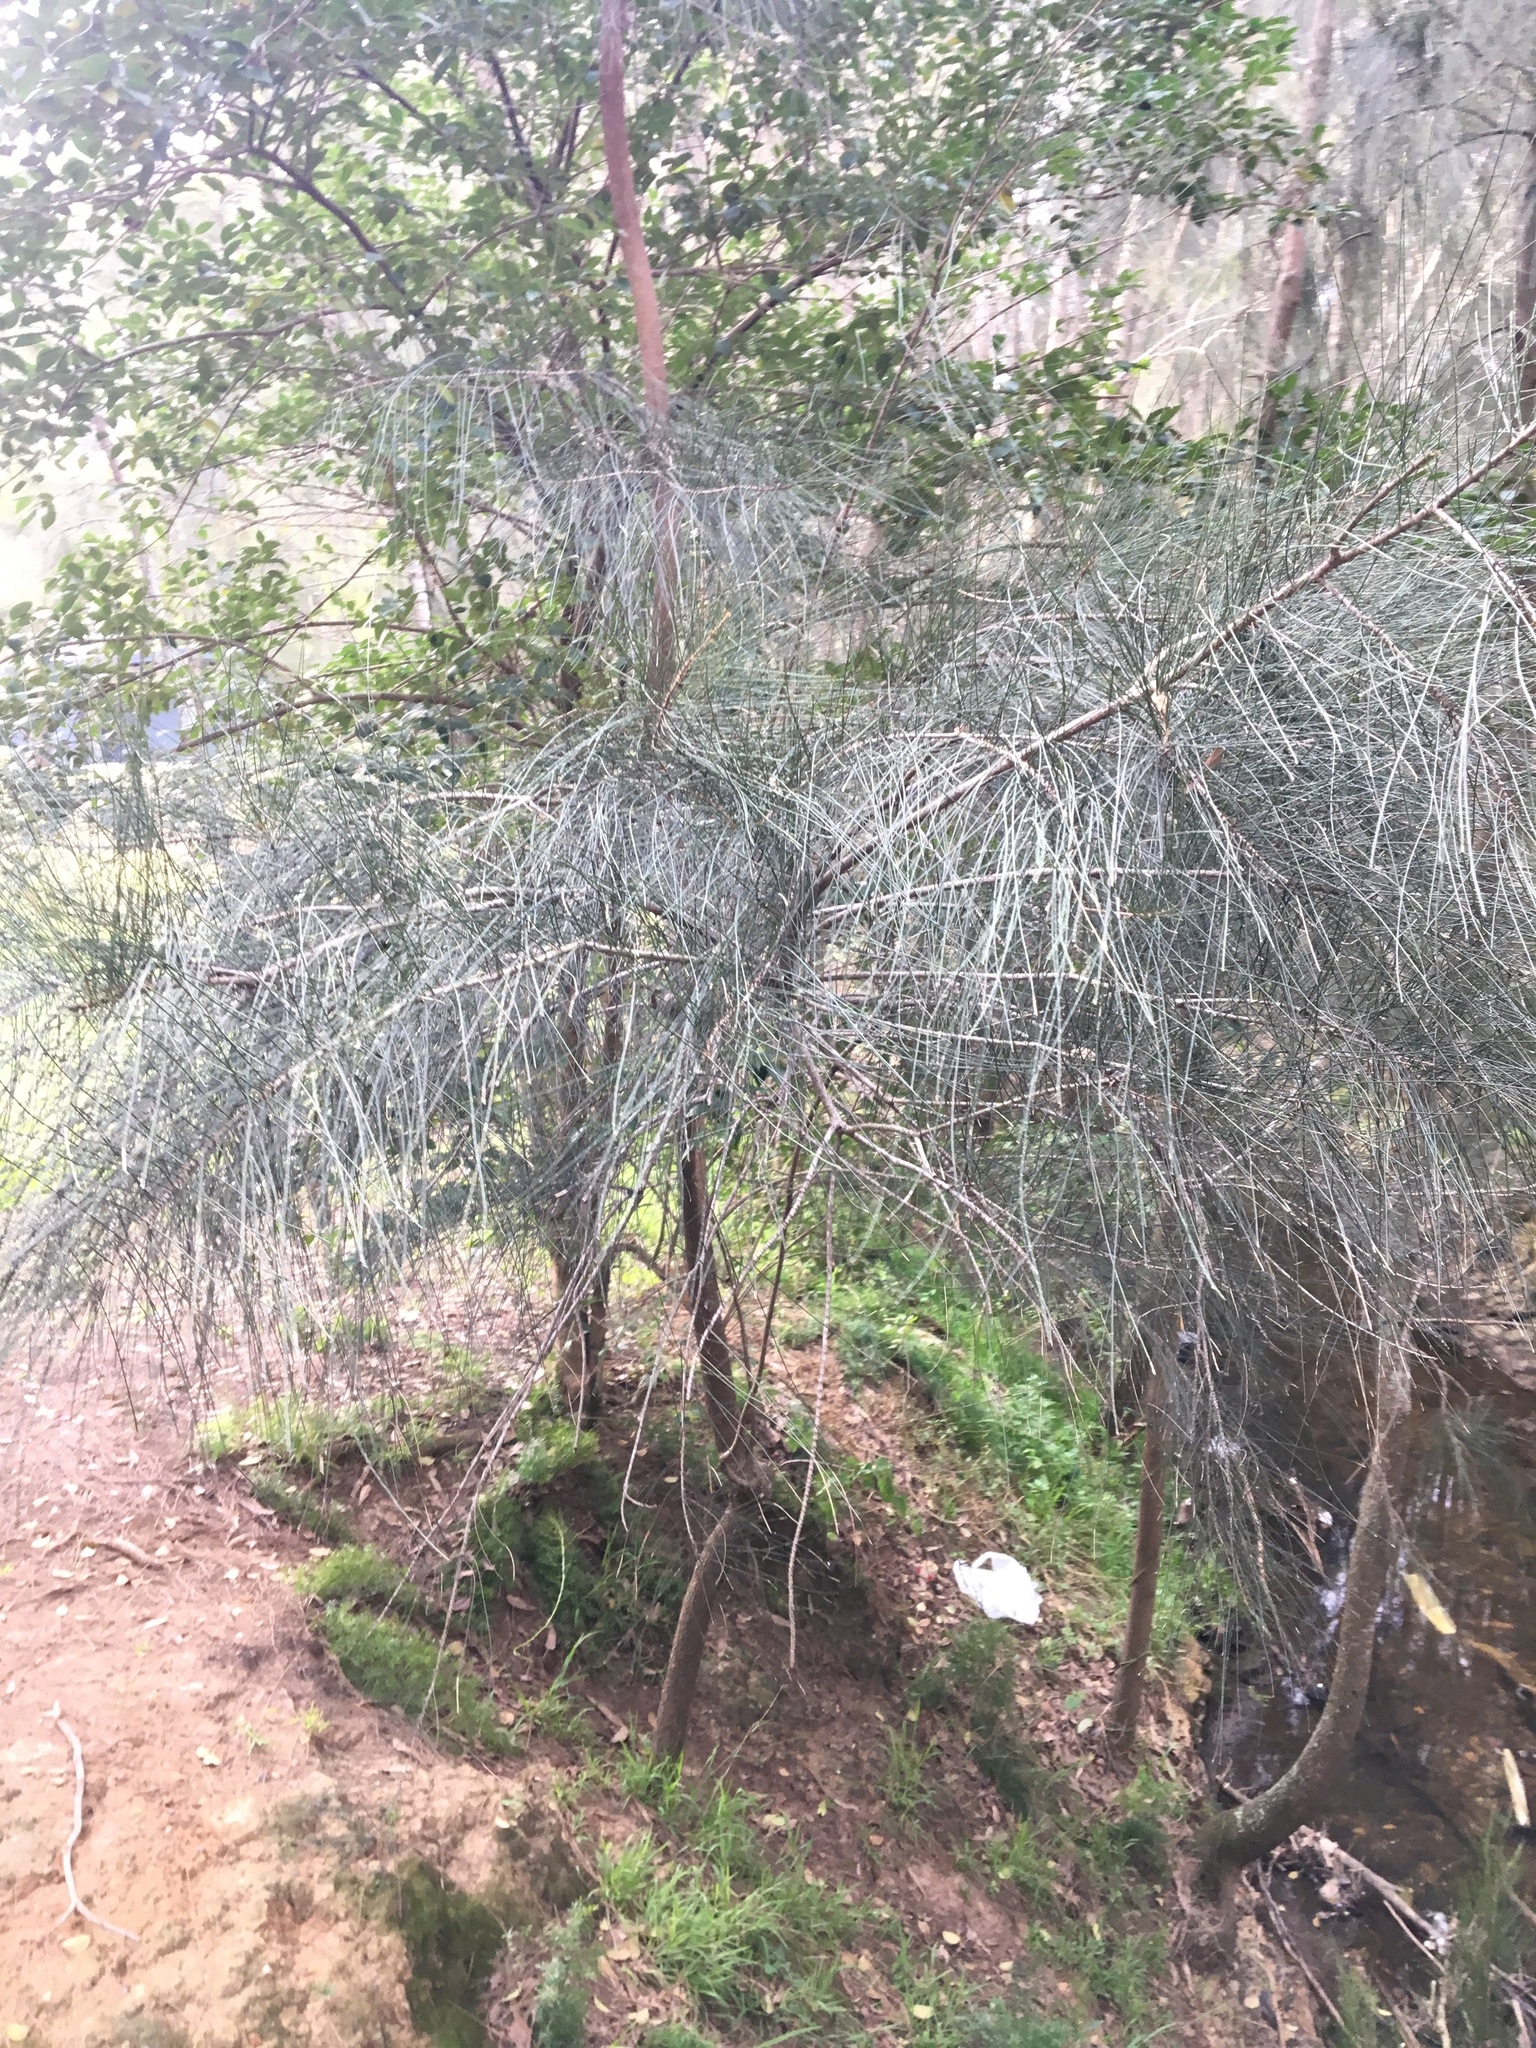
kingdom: Plantae
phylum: Tracheophyta
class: Magnoliopsida
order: Fagales
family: Casuarinaceae
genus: Casuarina
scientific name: Casuarina glauca
